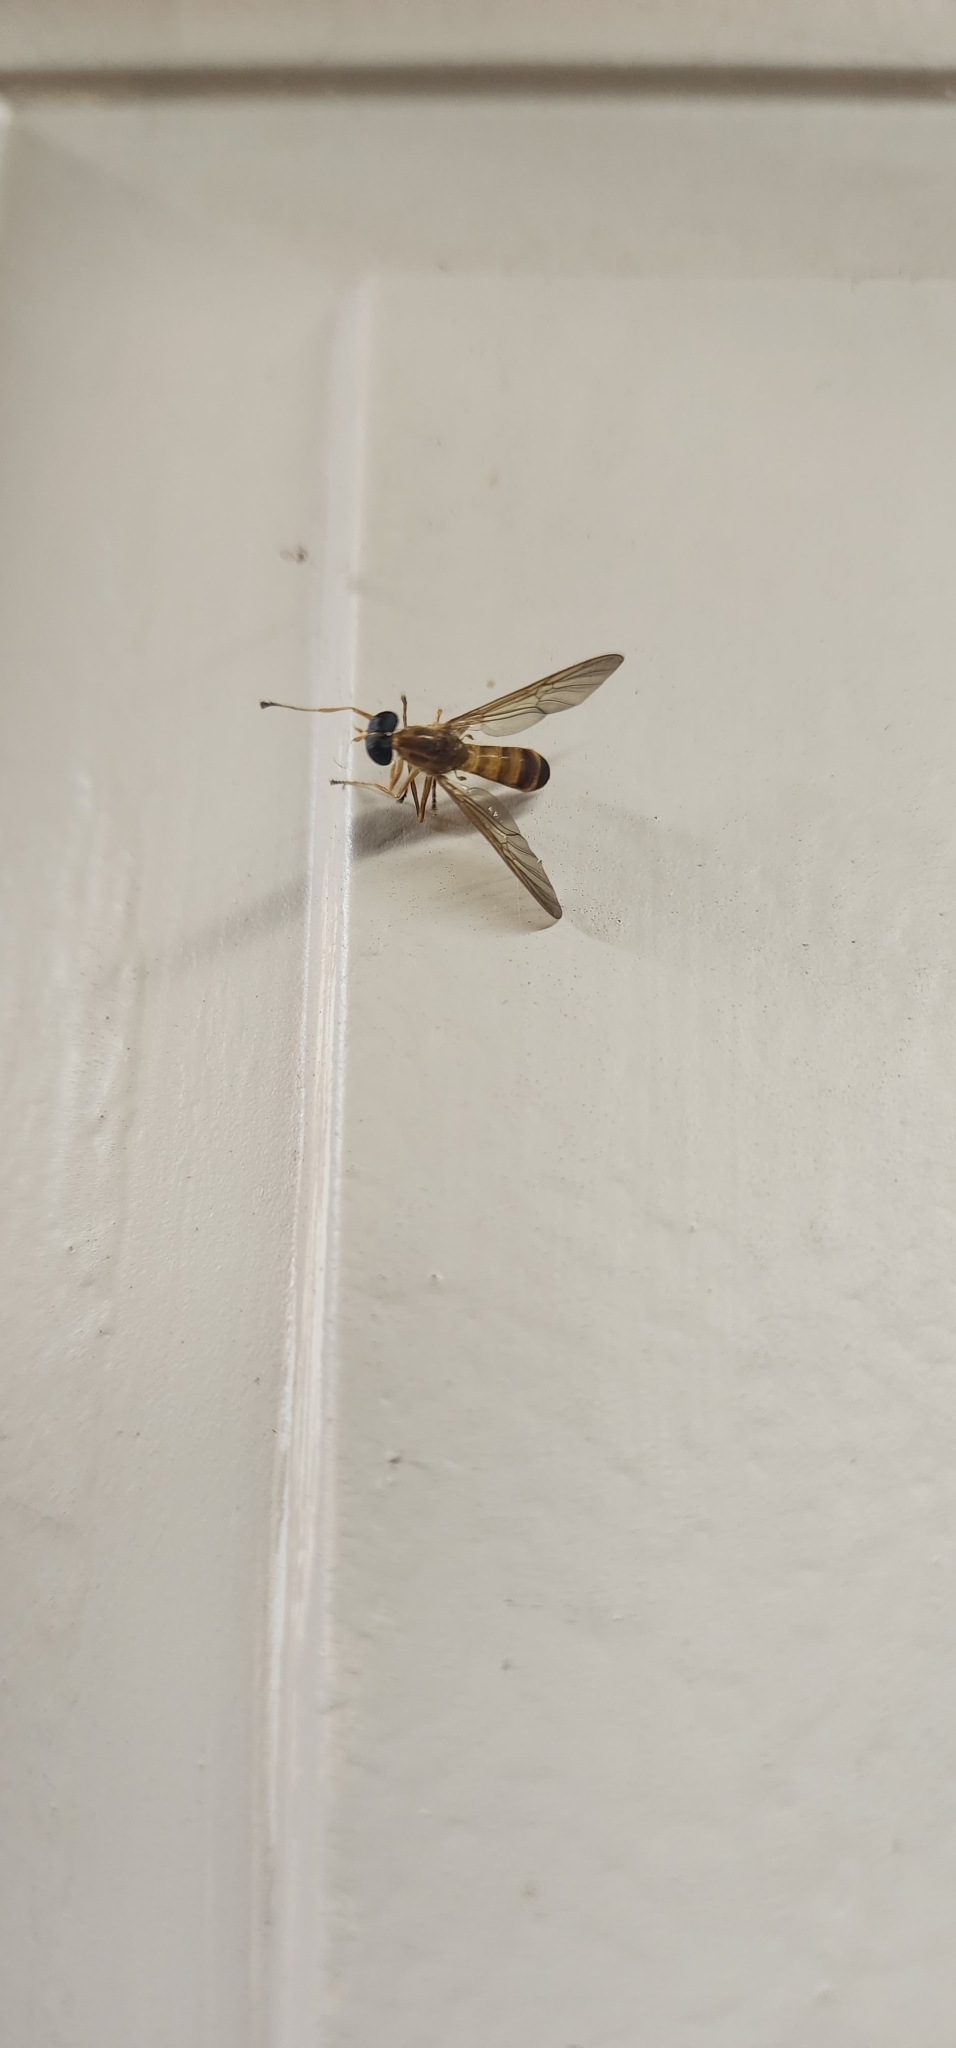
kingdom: Animalia
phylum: Arthropoda
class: Insecta
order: Diptera
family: Stratiomyidae
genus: Ptecticus
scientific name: Ptecticus trivittatus
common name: Compost fly
